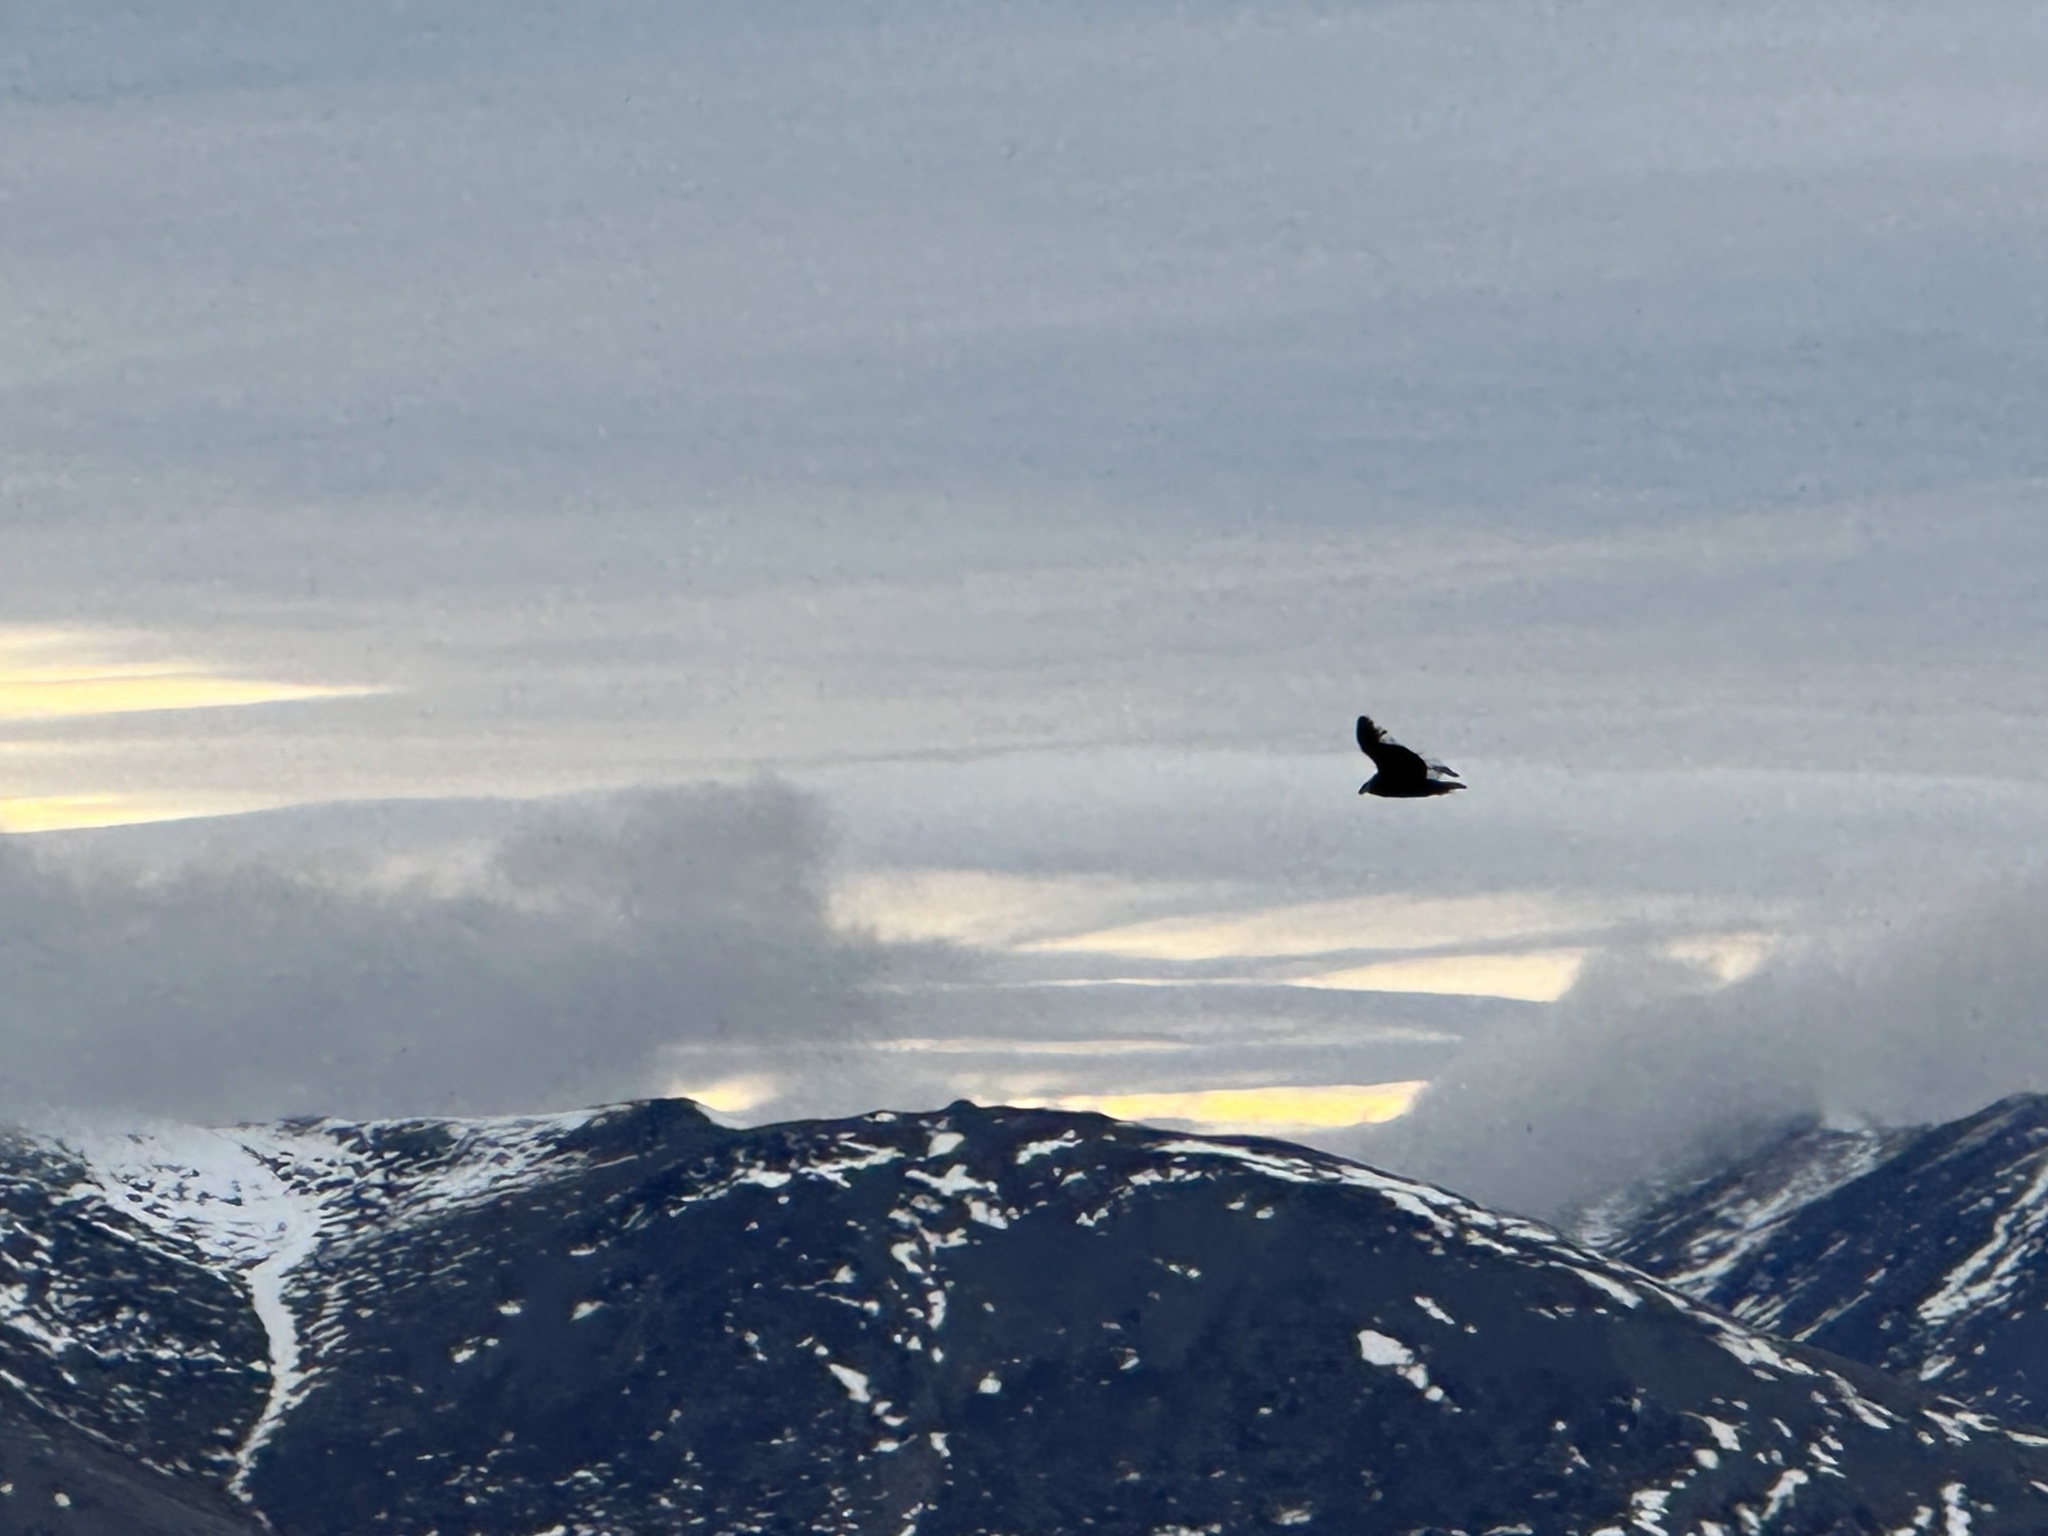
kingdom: Animalia
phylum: Chordata
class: Aves
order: Accipitriformes
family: Cathartidae
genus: Vultur
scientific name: Vultur gryphus
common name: Andean condor
